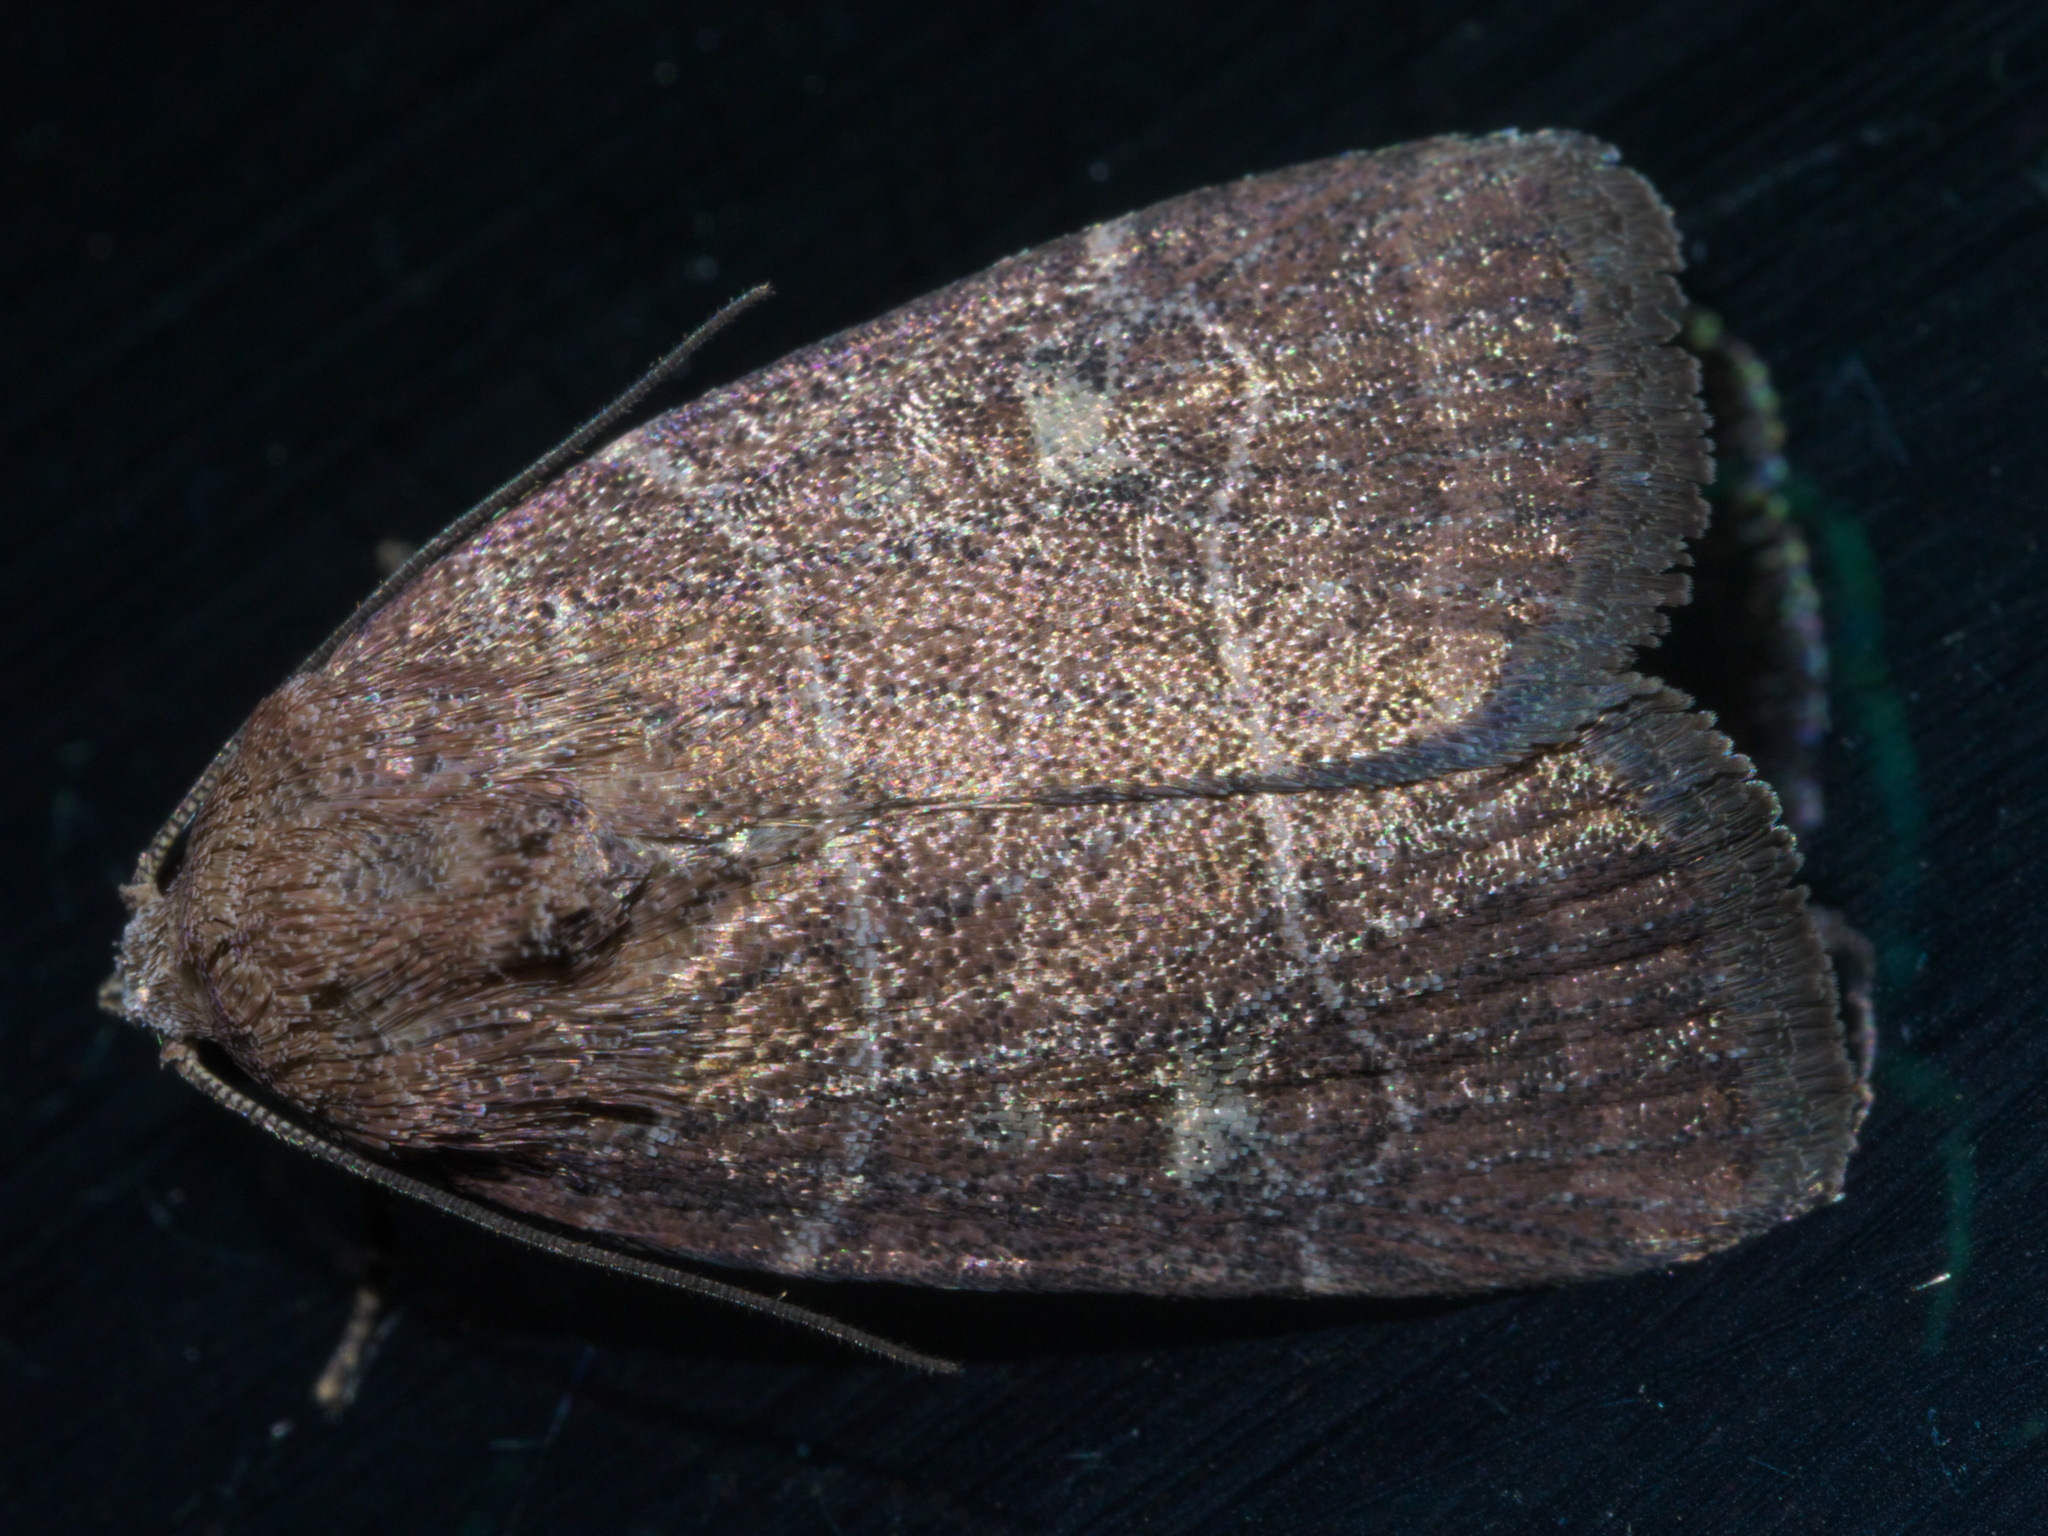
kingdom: Animalia
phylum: Arthropoda
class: Insecta
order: Lepidoptera
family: Noctuidae
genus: Elaphria
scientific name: Elaphria grata
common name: Grateful midget moth
